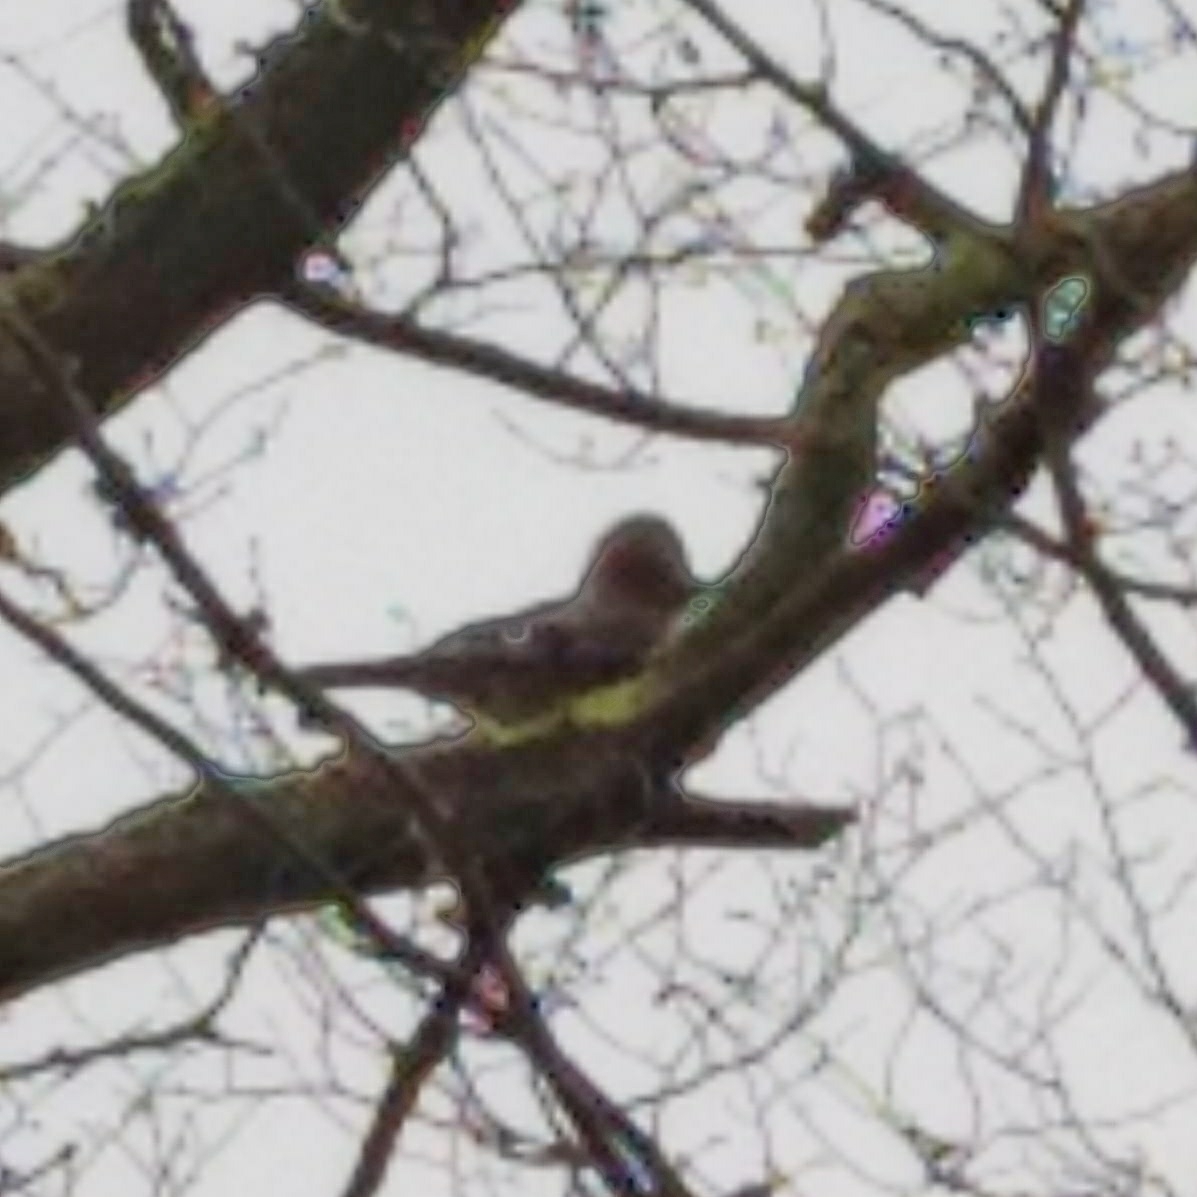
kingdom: Animalia
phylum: Chordata
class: Aves
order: Passeriformes
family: Corvidae
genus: Garrulus
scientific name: Garrulus glandarius
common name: Eurasian jay
